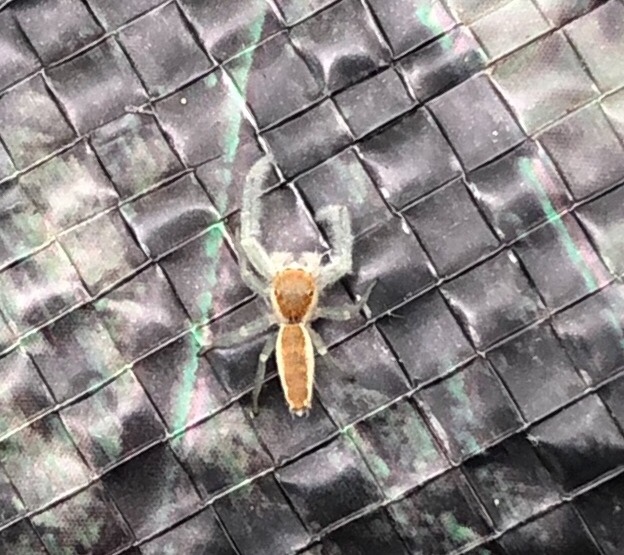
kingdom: Animalia
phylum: Arthropoda
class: Arachnida
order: Araneae
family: Salticidae
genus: Hentzia
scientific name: Hentzia mitrata
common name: White-jawed jumping spider
